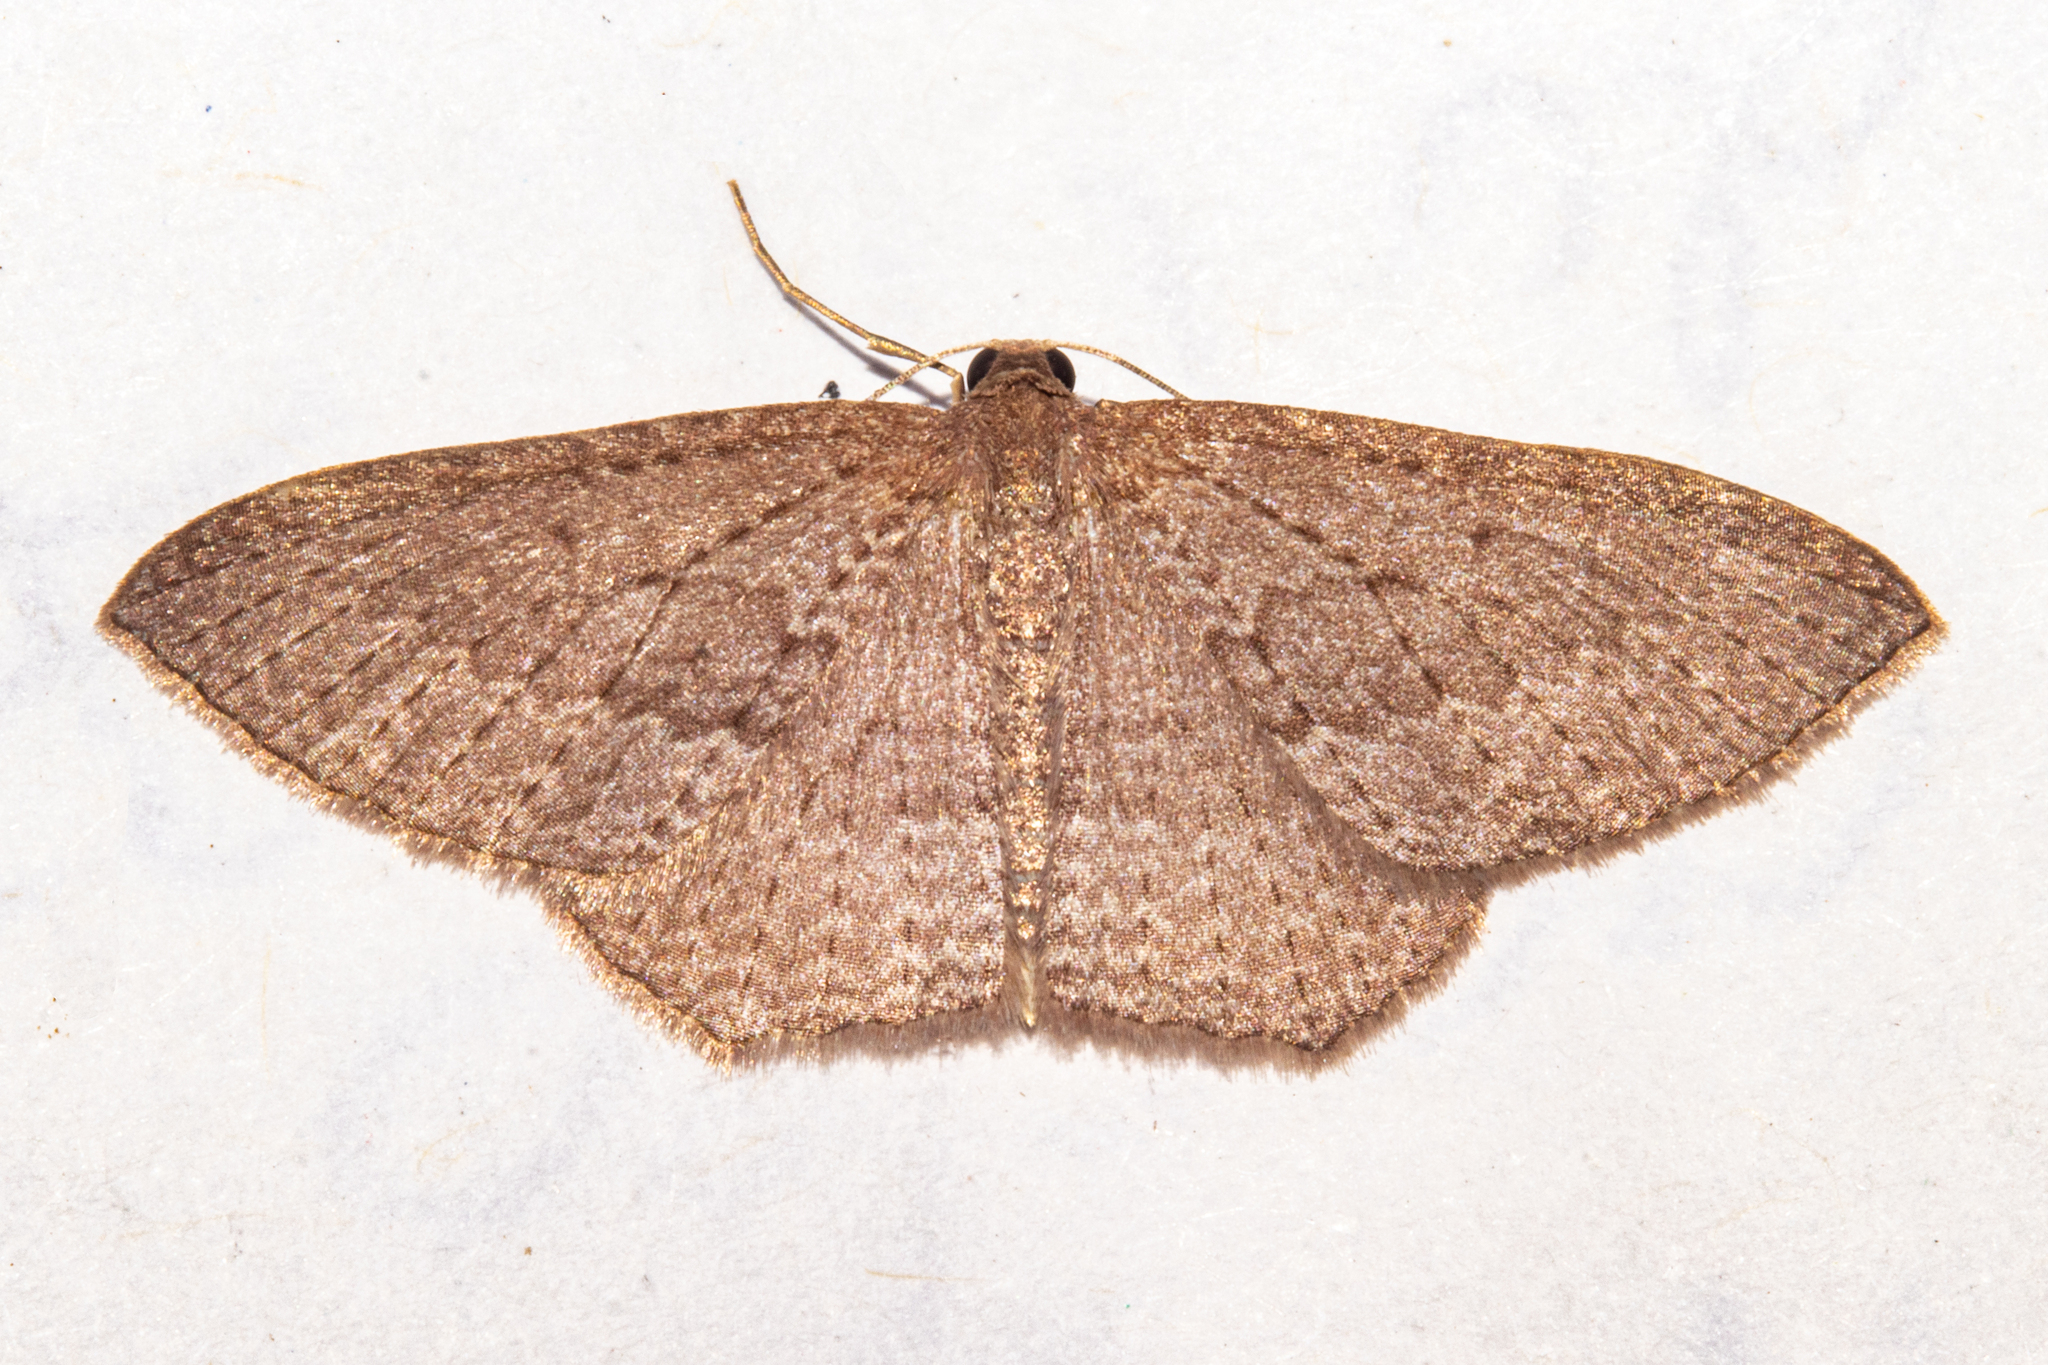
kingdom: Animalia
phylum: Arthropoda
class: Insecta
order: Lepidoptera
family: Geometridae
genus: Poecilasthena
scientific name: Poecilasthena subpurpureata
